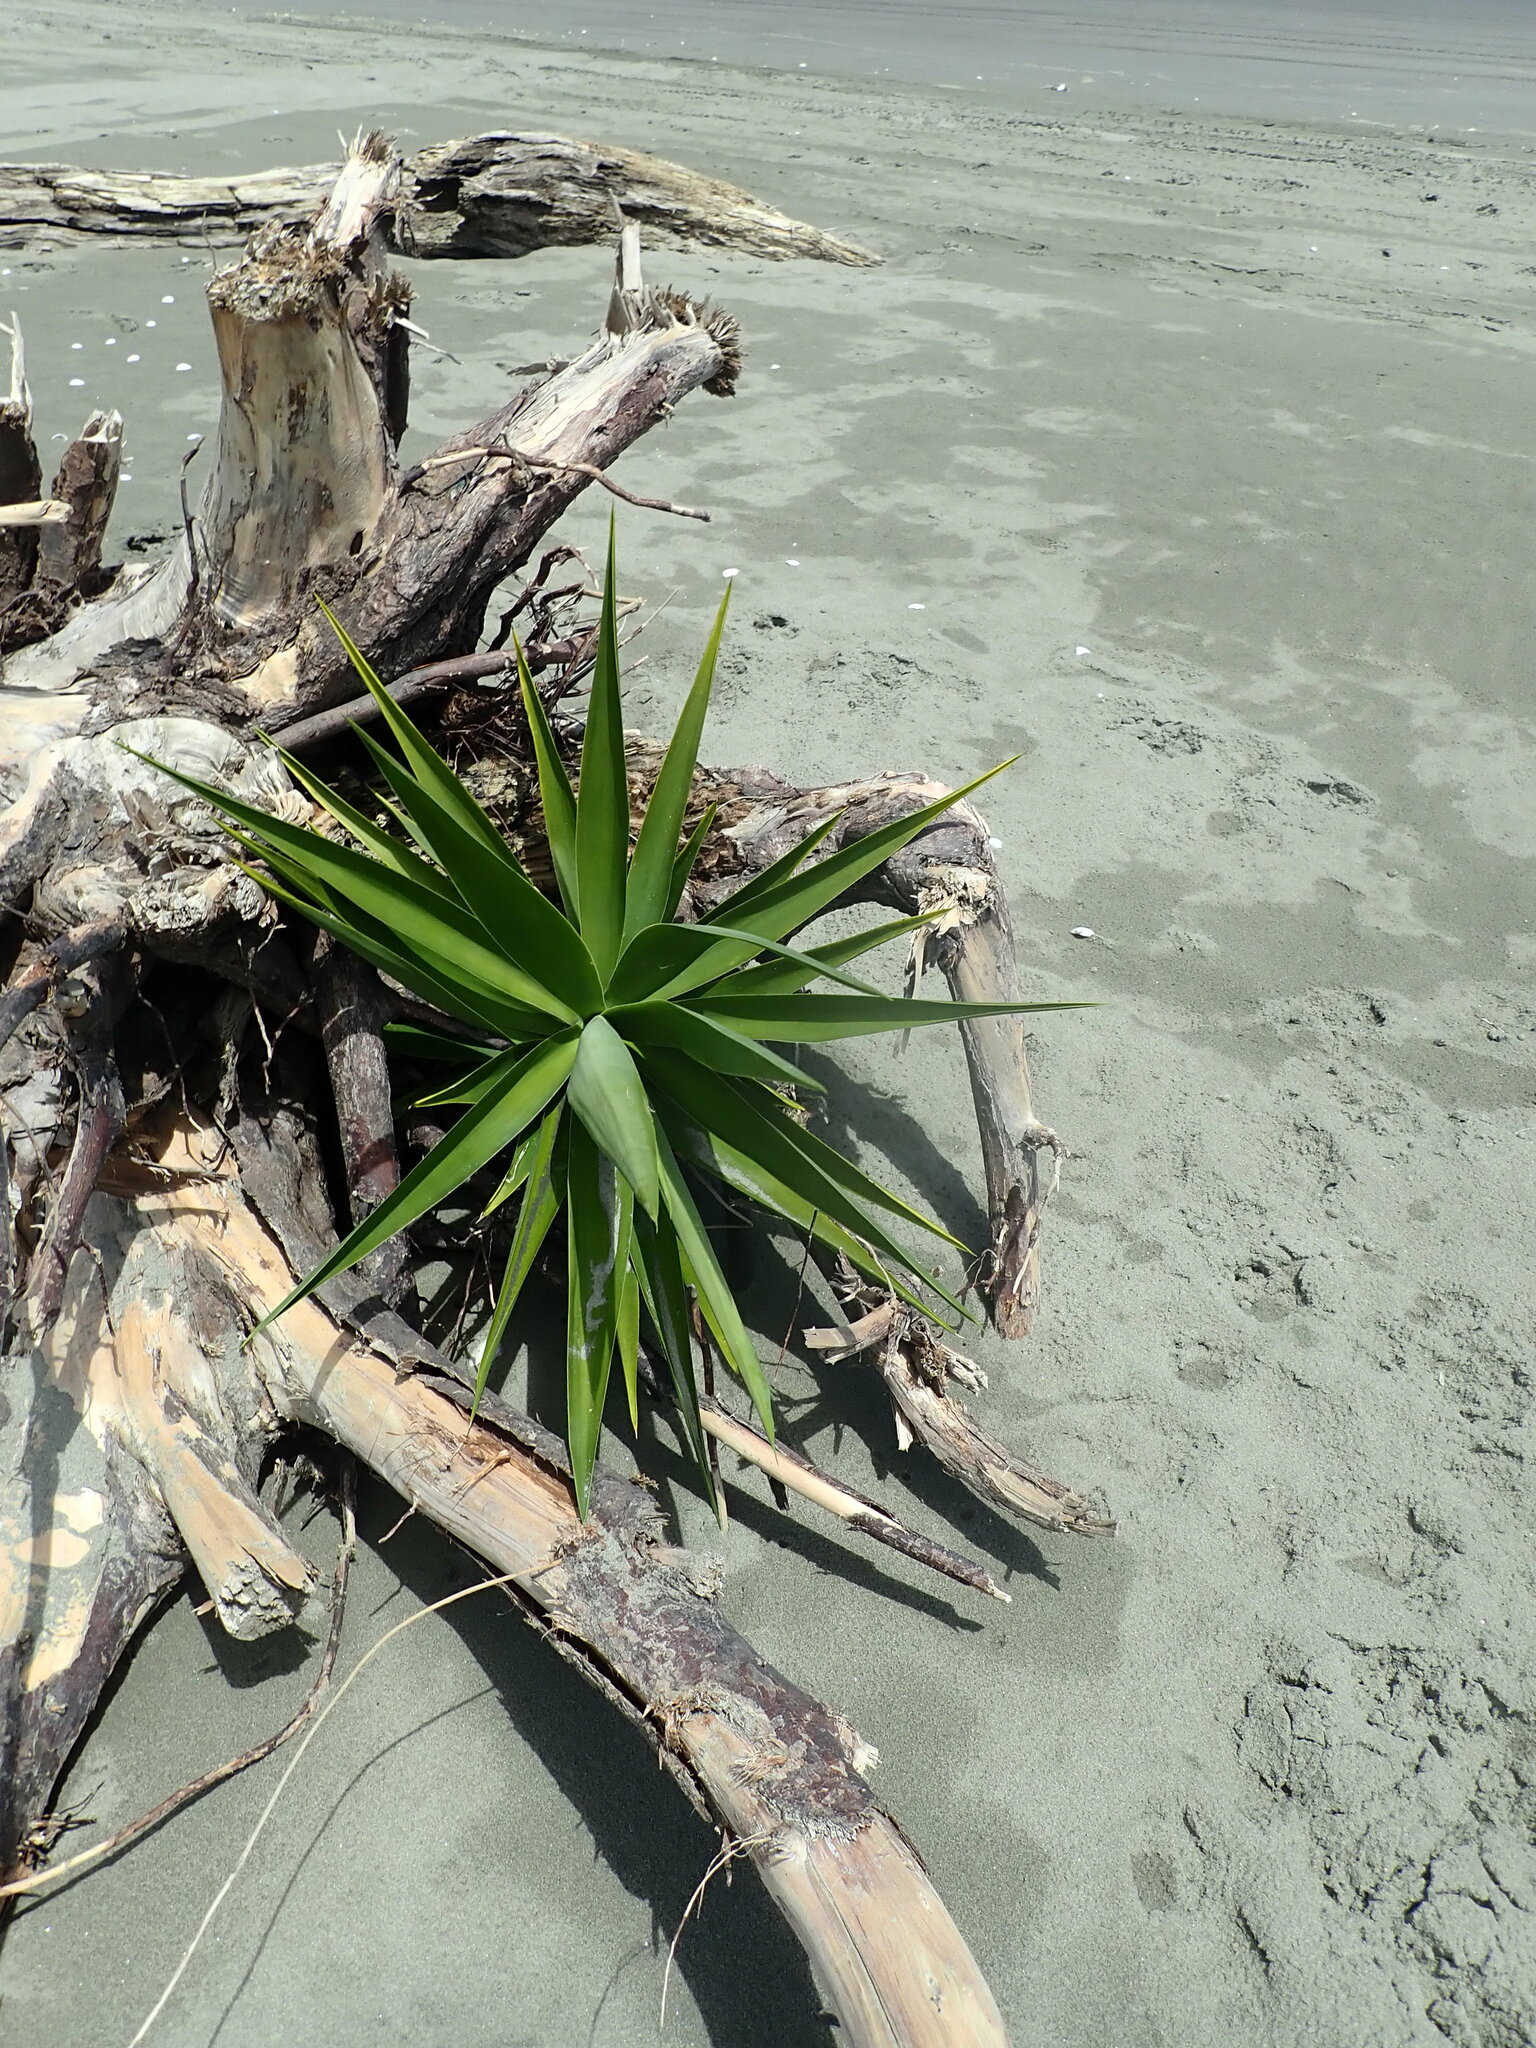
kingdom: Plantae
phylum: Tracheophyta
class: Liliopsida
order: Asparagales
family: Asparagaceae
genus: Yucca
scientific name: Yucca gloriosa
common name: Spanish-dagger
